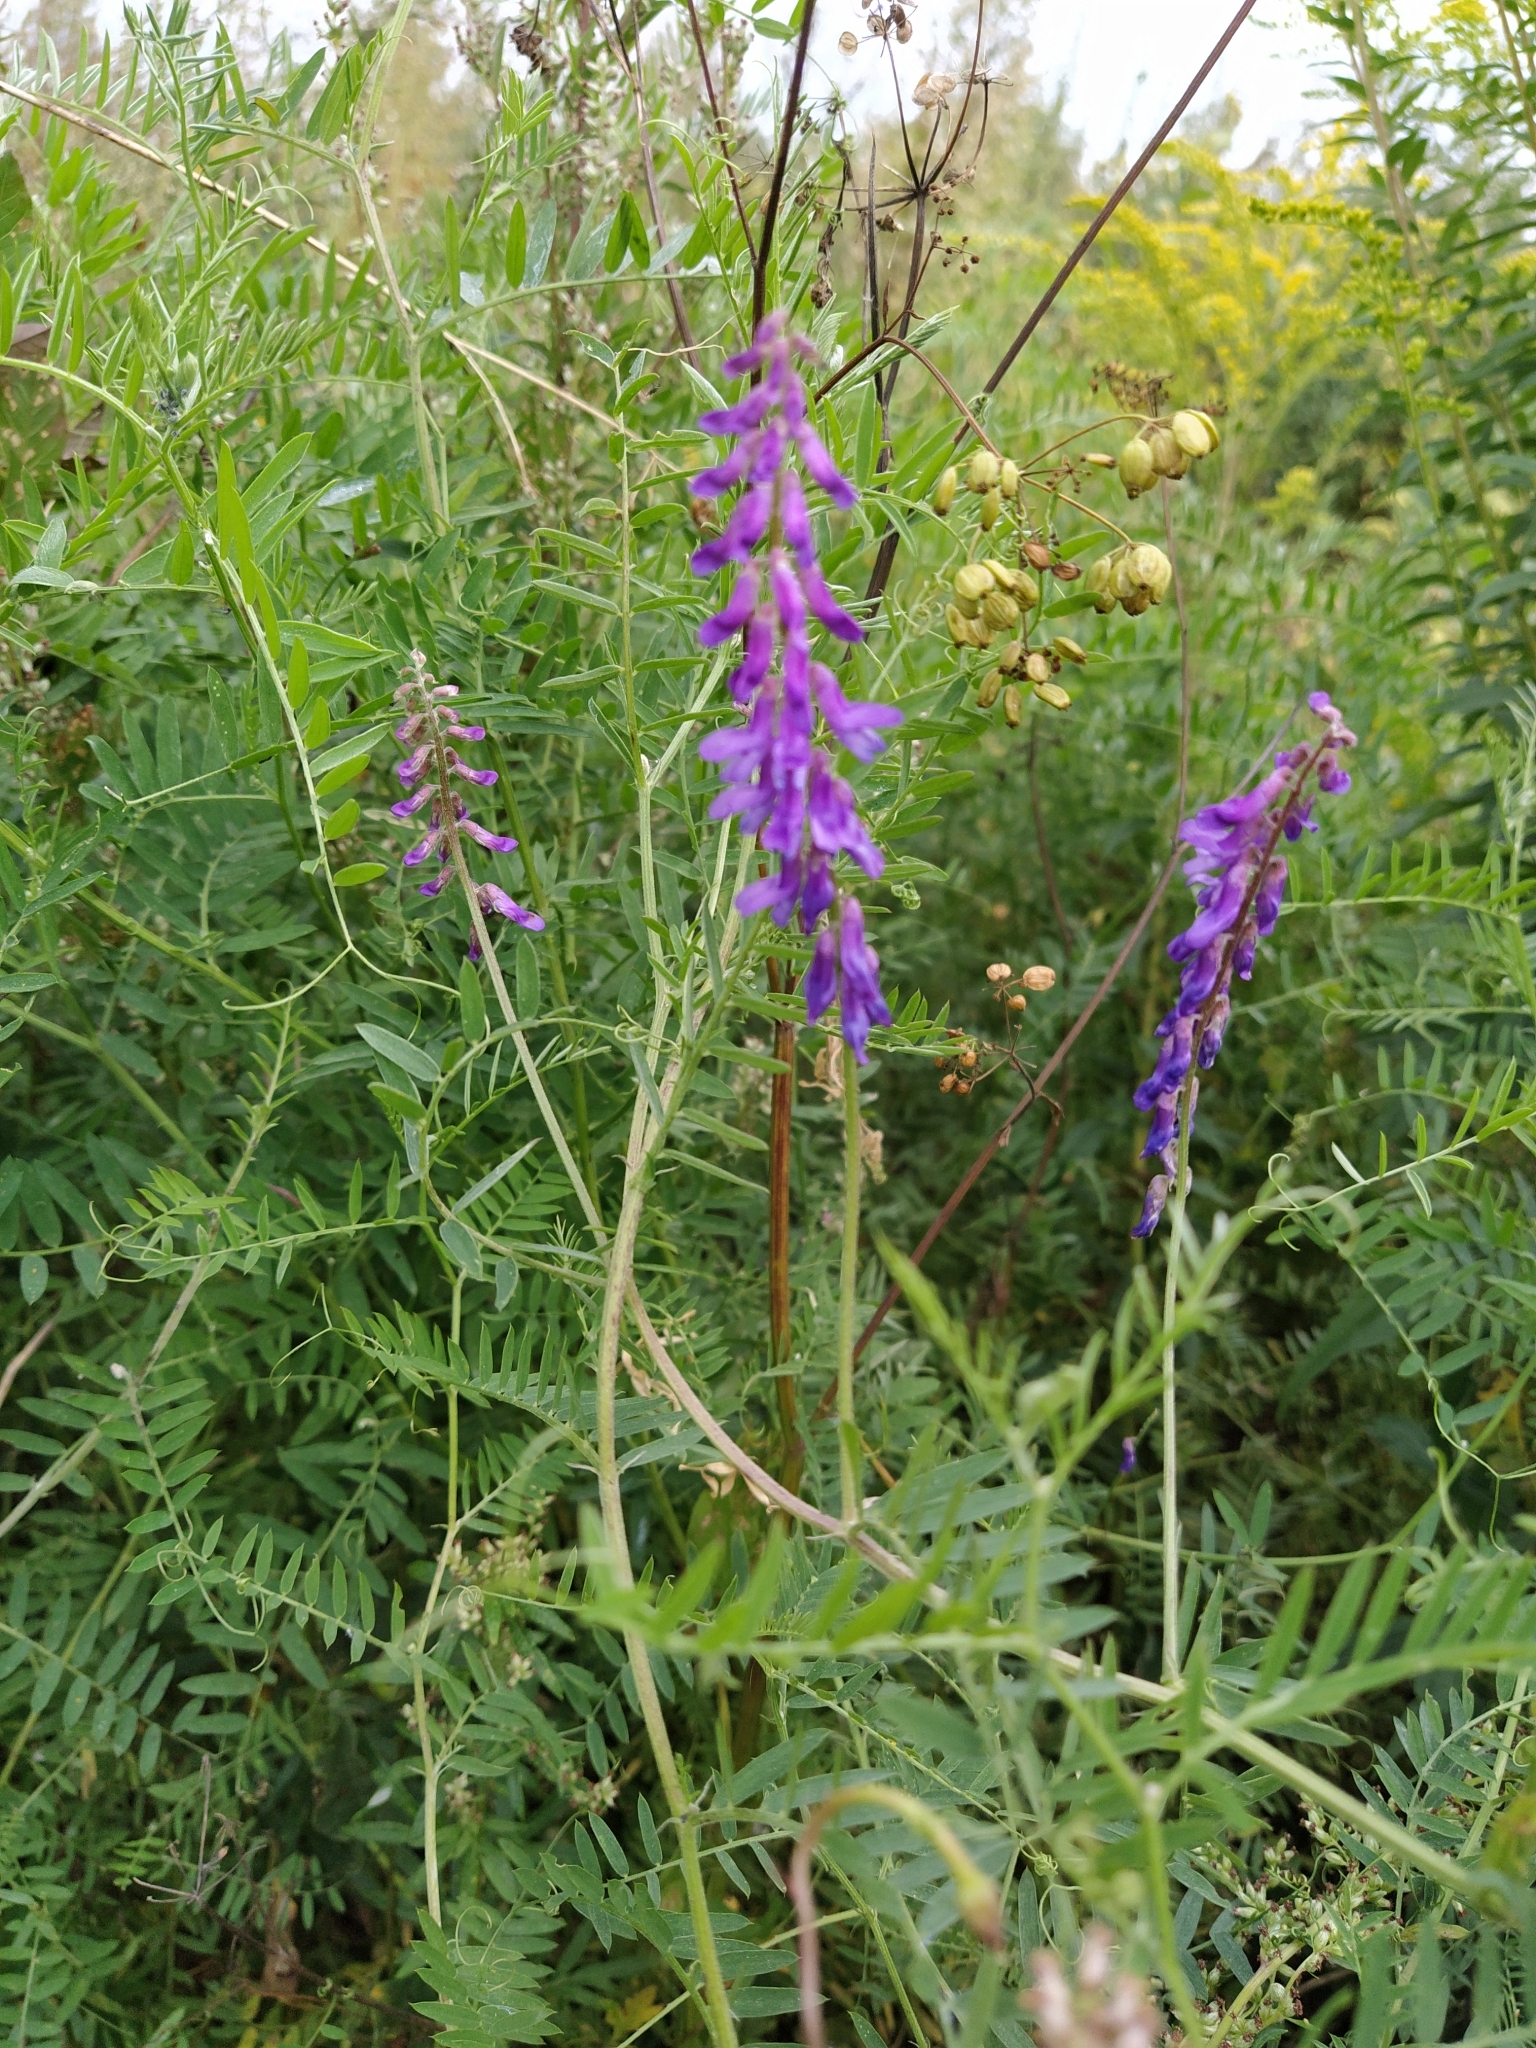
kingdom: Plantae
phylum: Tracheophyta
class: Magnoliopsida
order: Fabales
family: Fabaceae
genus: Vicia
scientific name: Vicia cracca
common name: Bird vetch
